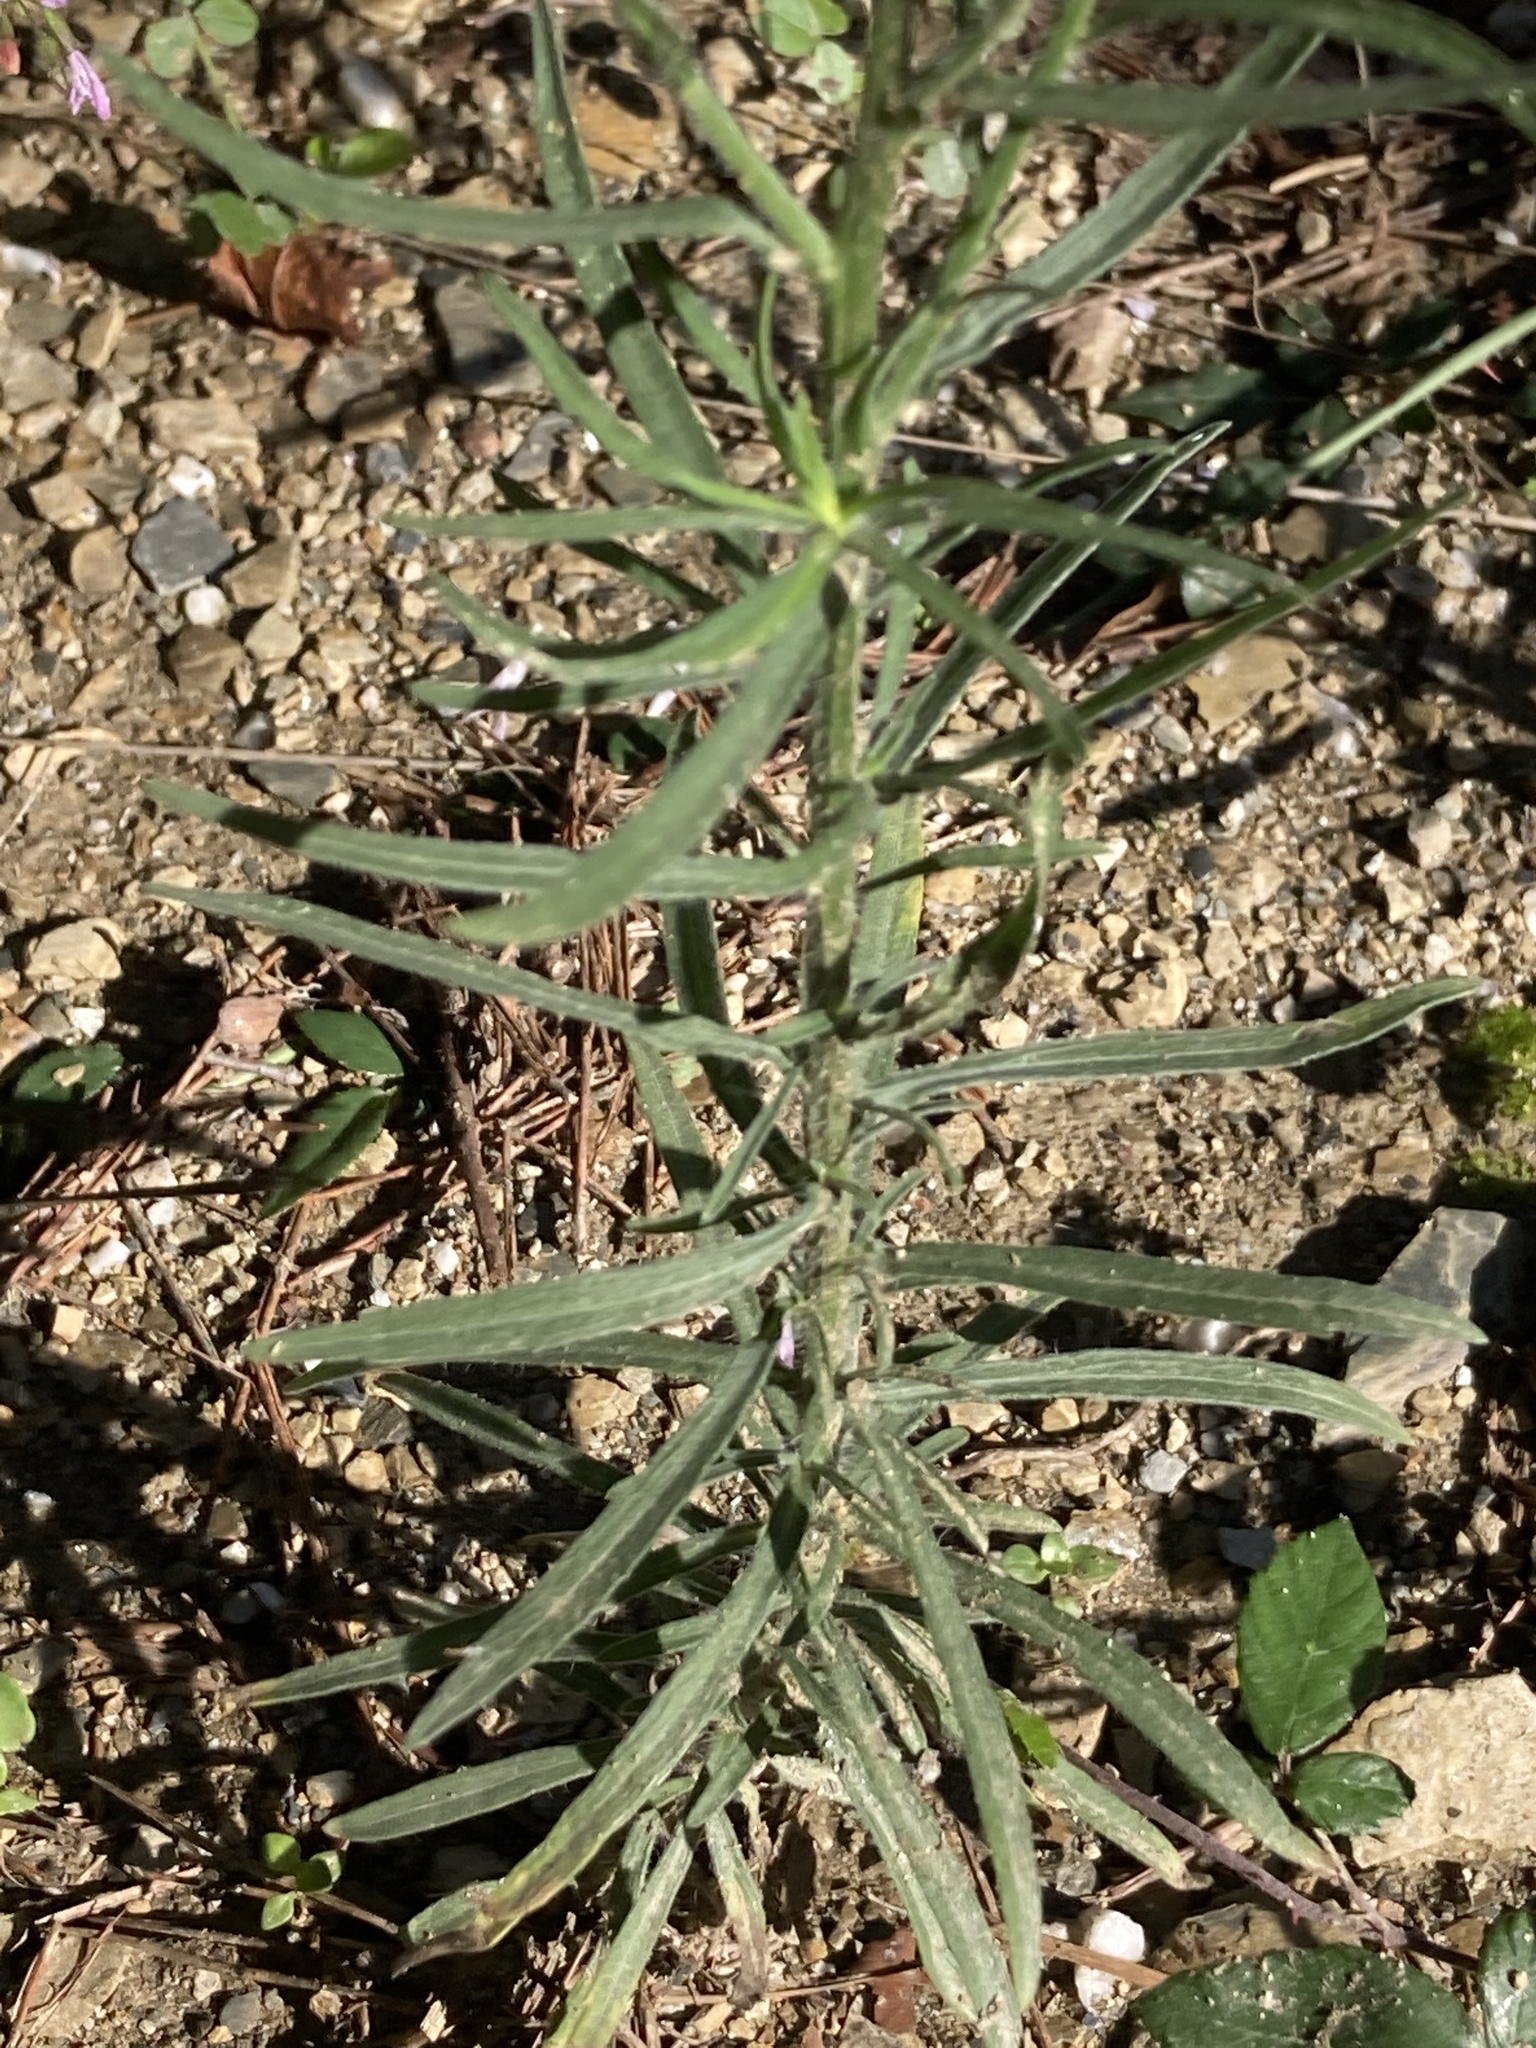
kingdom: Plantae
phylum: Tracheophyta
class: Magnoliopsida
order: Asterales
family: Asteraceae
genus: Erigeron
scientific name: Erigeron bonariensis
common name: Argentine fleabane
